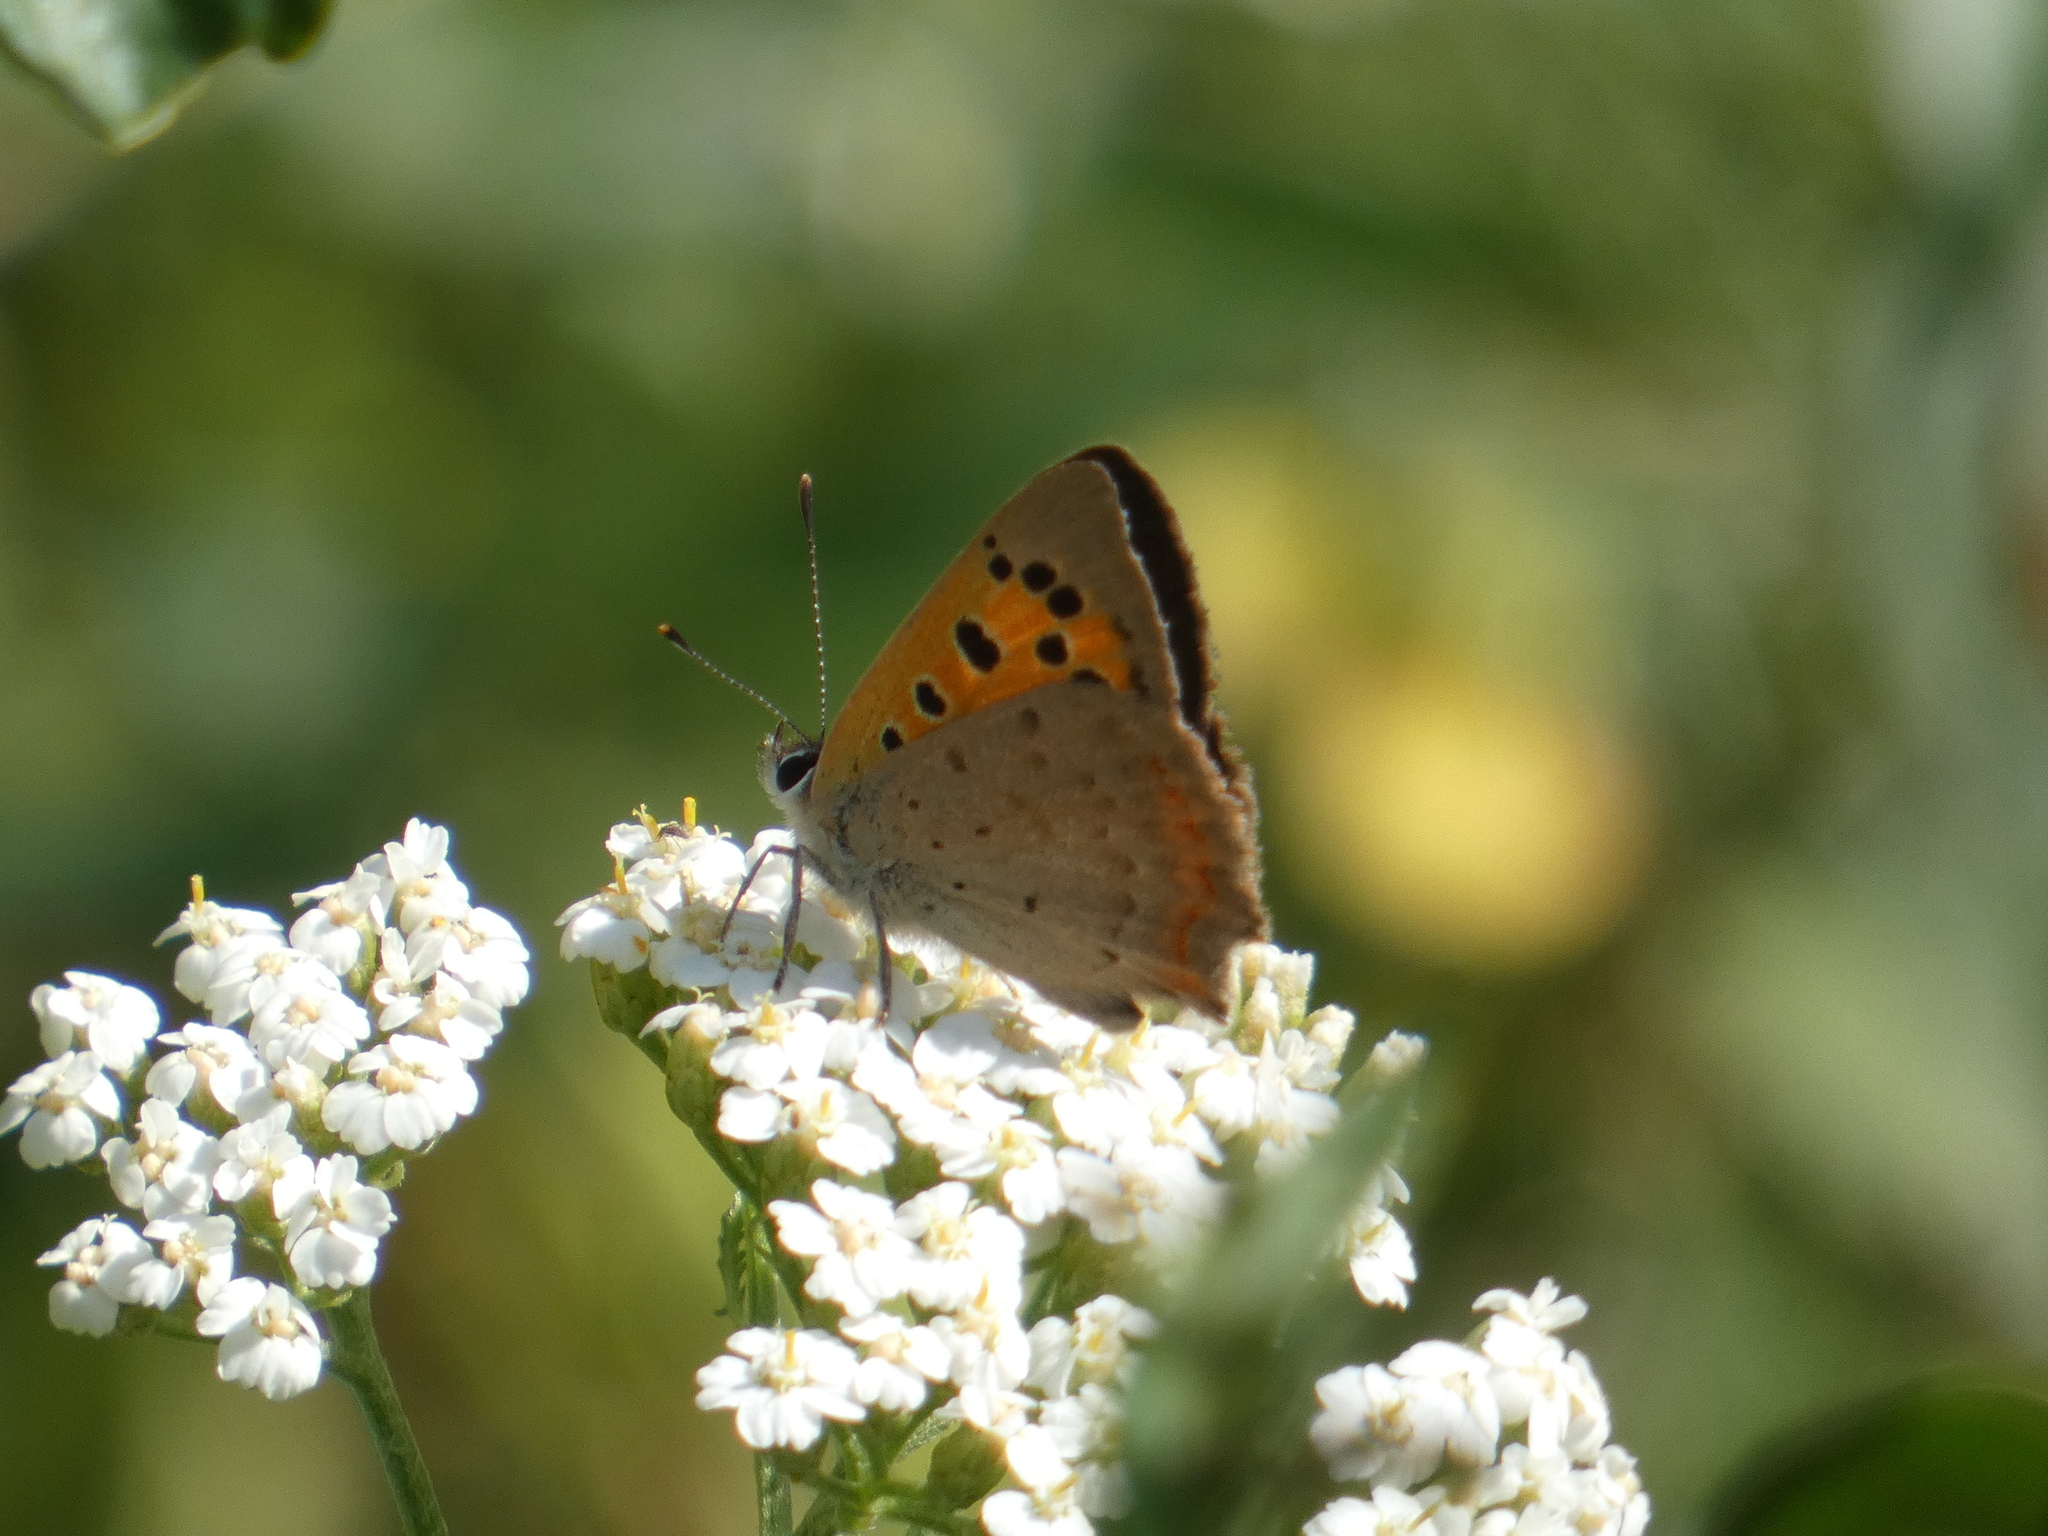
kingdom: Animalia
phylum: Arthropoda
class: Insecta
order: Lepidoptera
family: Lycaenidae
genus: Lycaena
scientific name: Lycaena phlaeas
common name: Small copper
